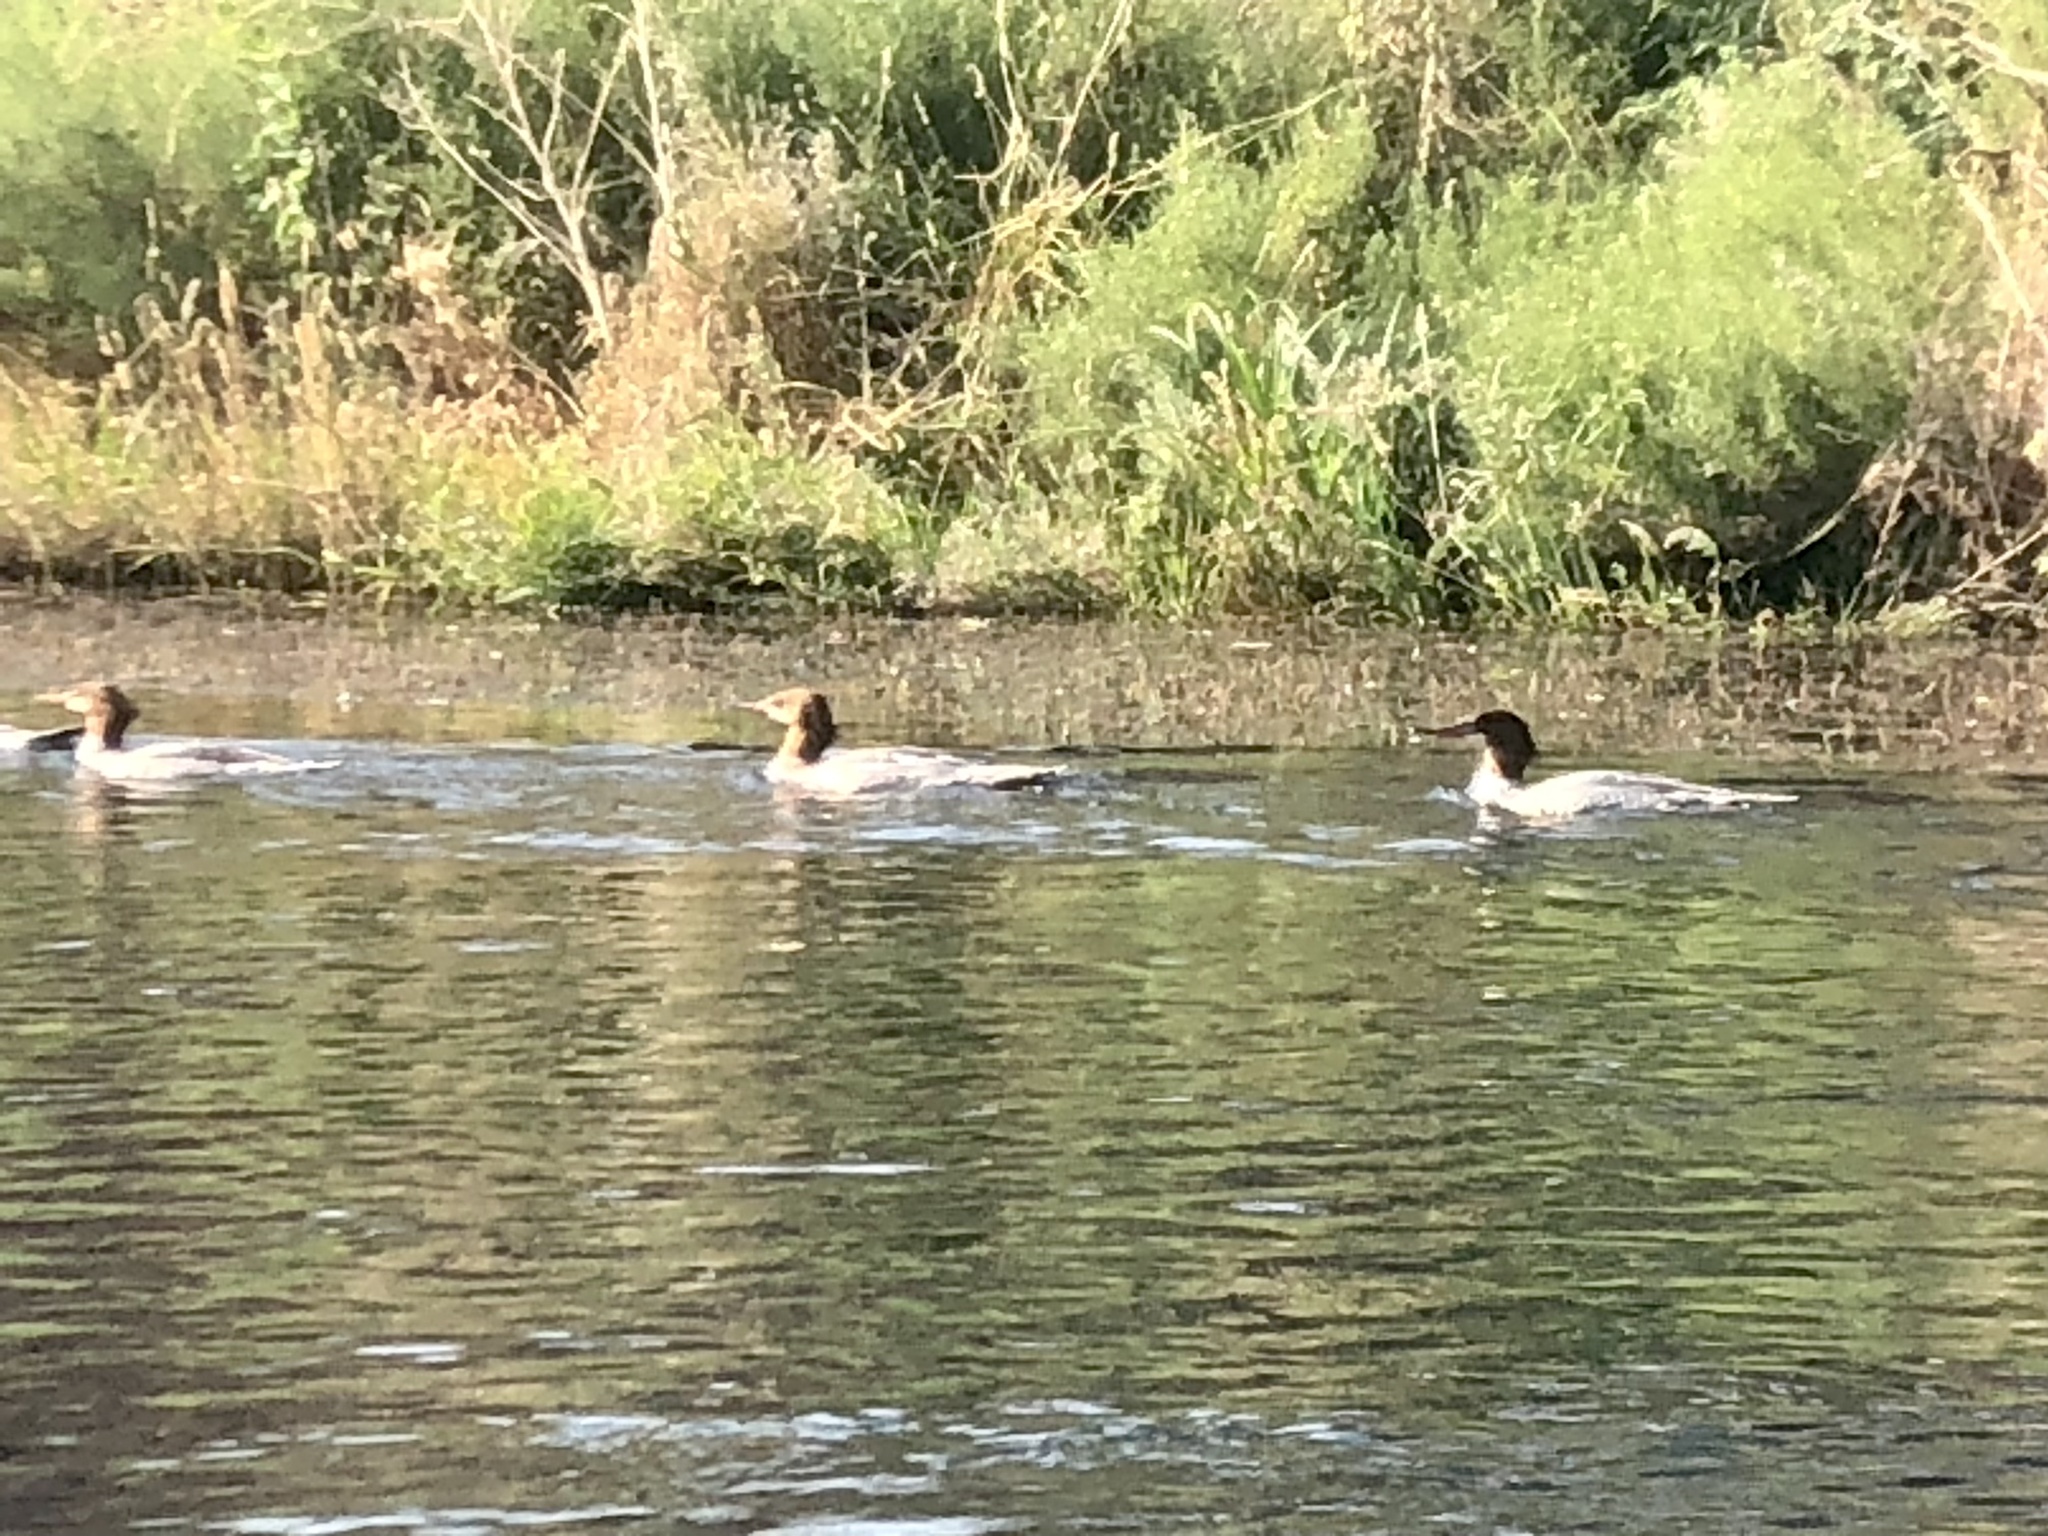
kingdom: Animalia
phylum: Chordata
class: Aves
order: Anseriformes
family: Anatidae
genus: Mergus
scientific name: Mergus merganser
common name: Common merganser
